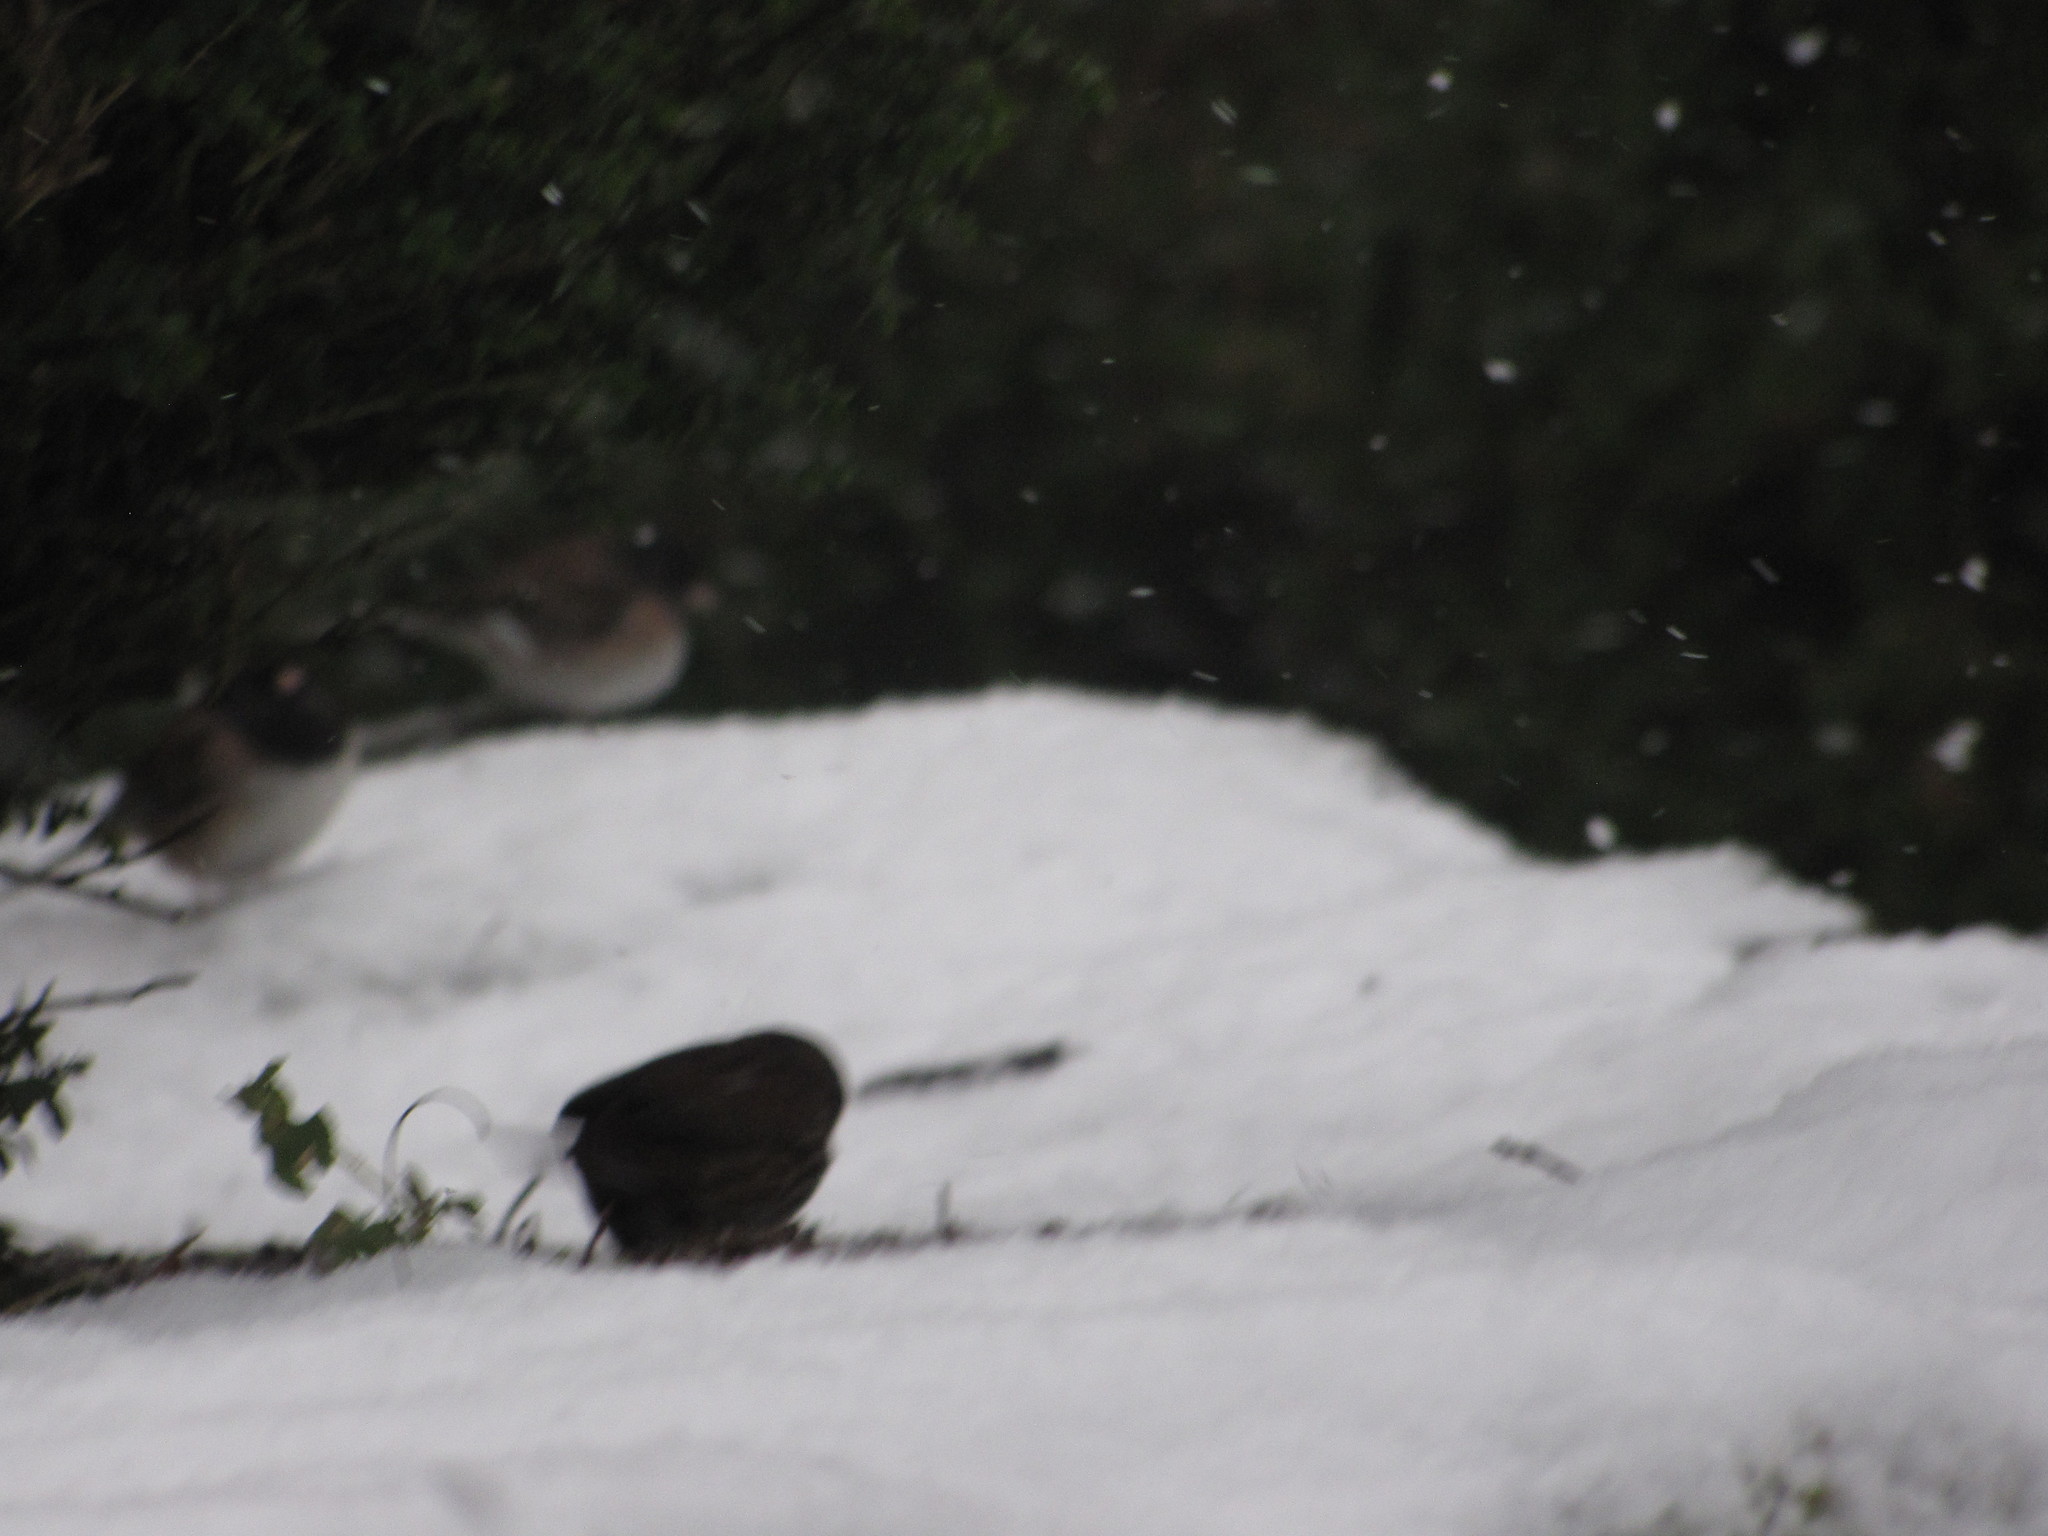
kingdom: Animalia
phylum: Chordata
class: Aves
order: Passeriformes
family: Passerellidae
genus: Junco
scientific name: Junco hyemalis
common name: Dark-eyed junco
